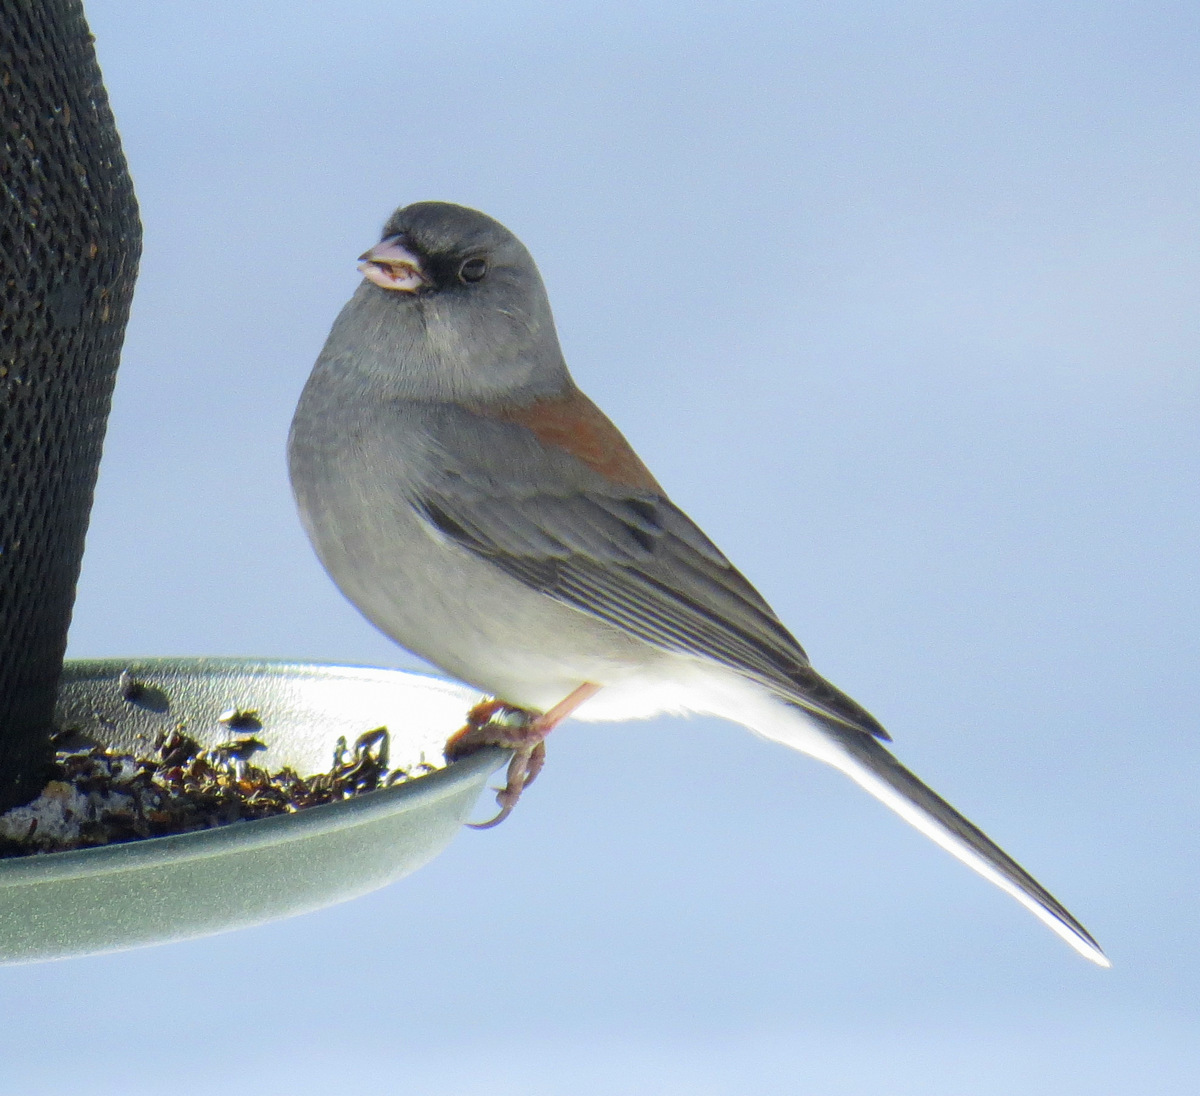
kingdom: Animalia
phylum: Chordata
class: Aves
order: Passeriformes
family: Passerellidae
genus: Junco
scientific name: Junco hyemalis
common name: Dark-eyed junco
